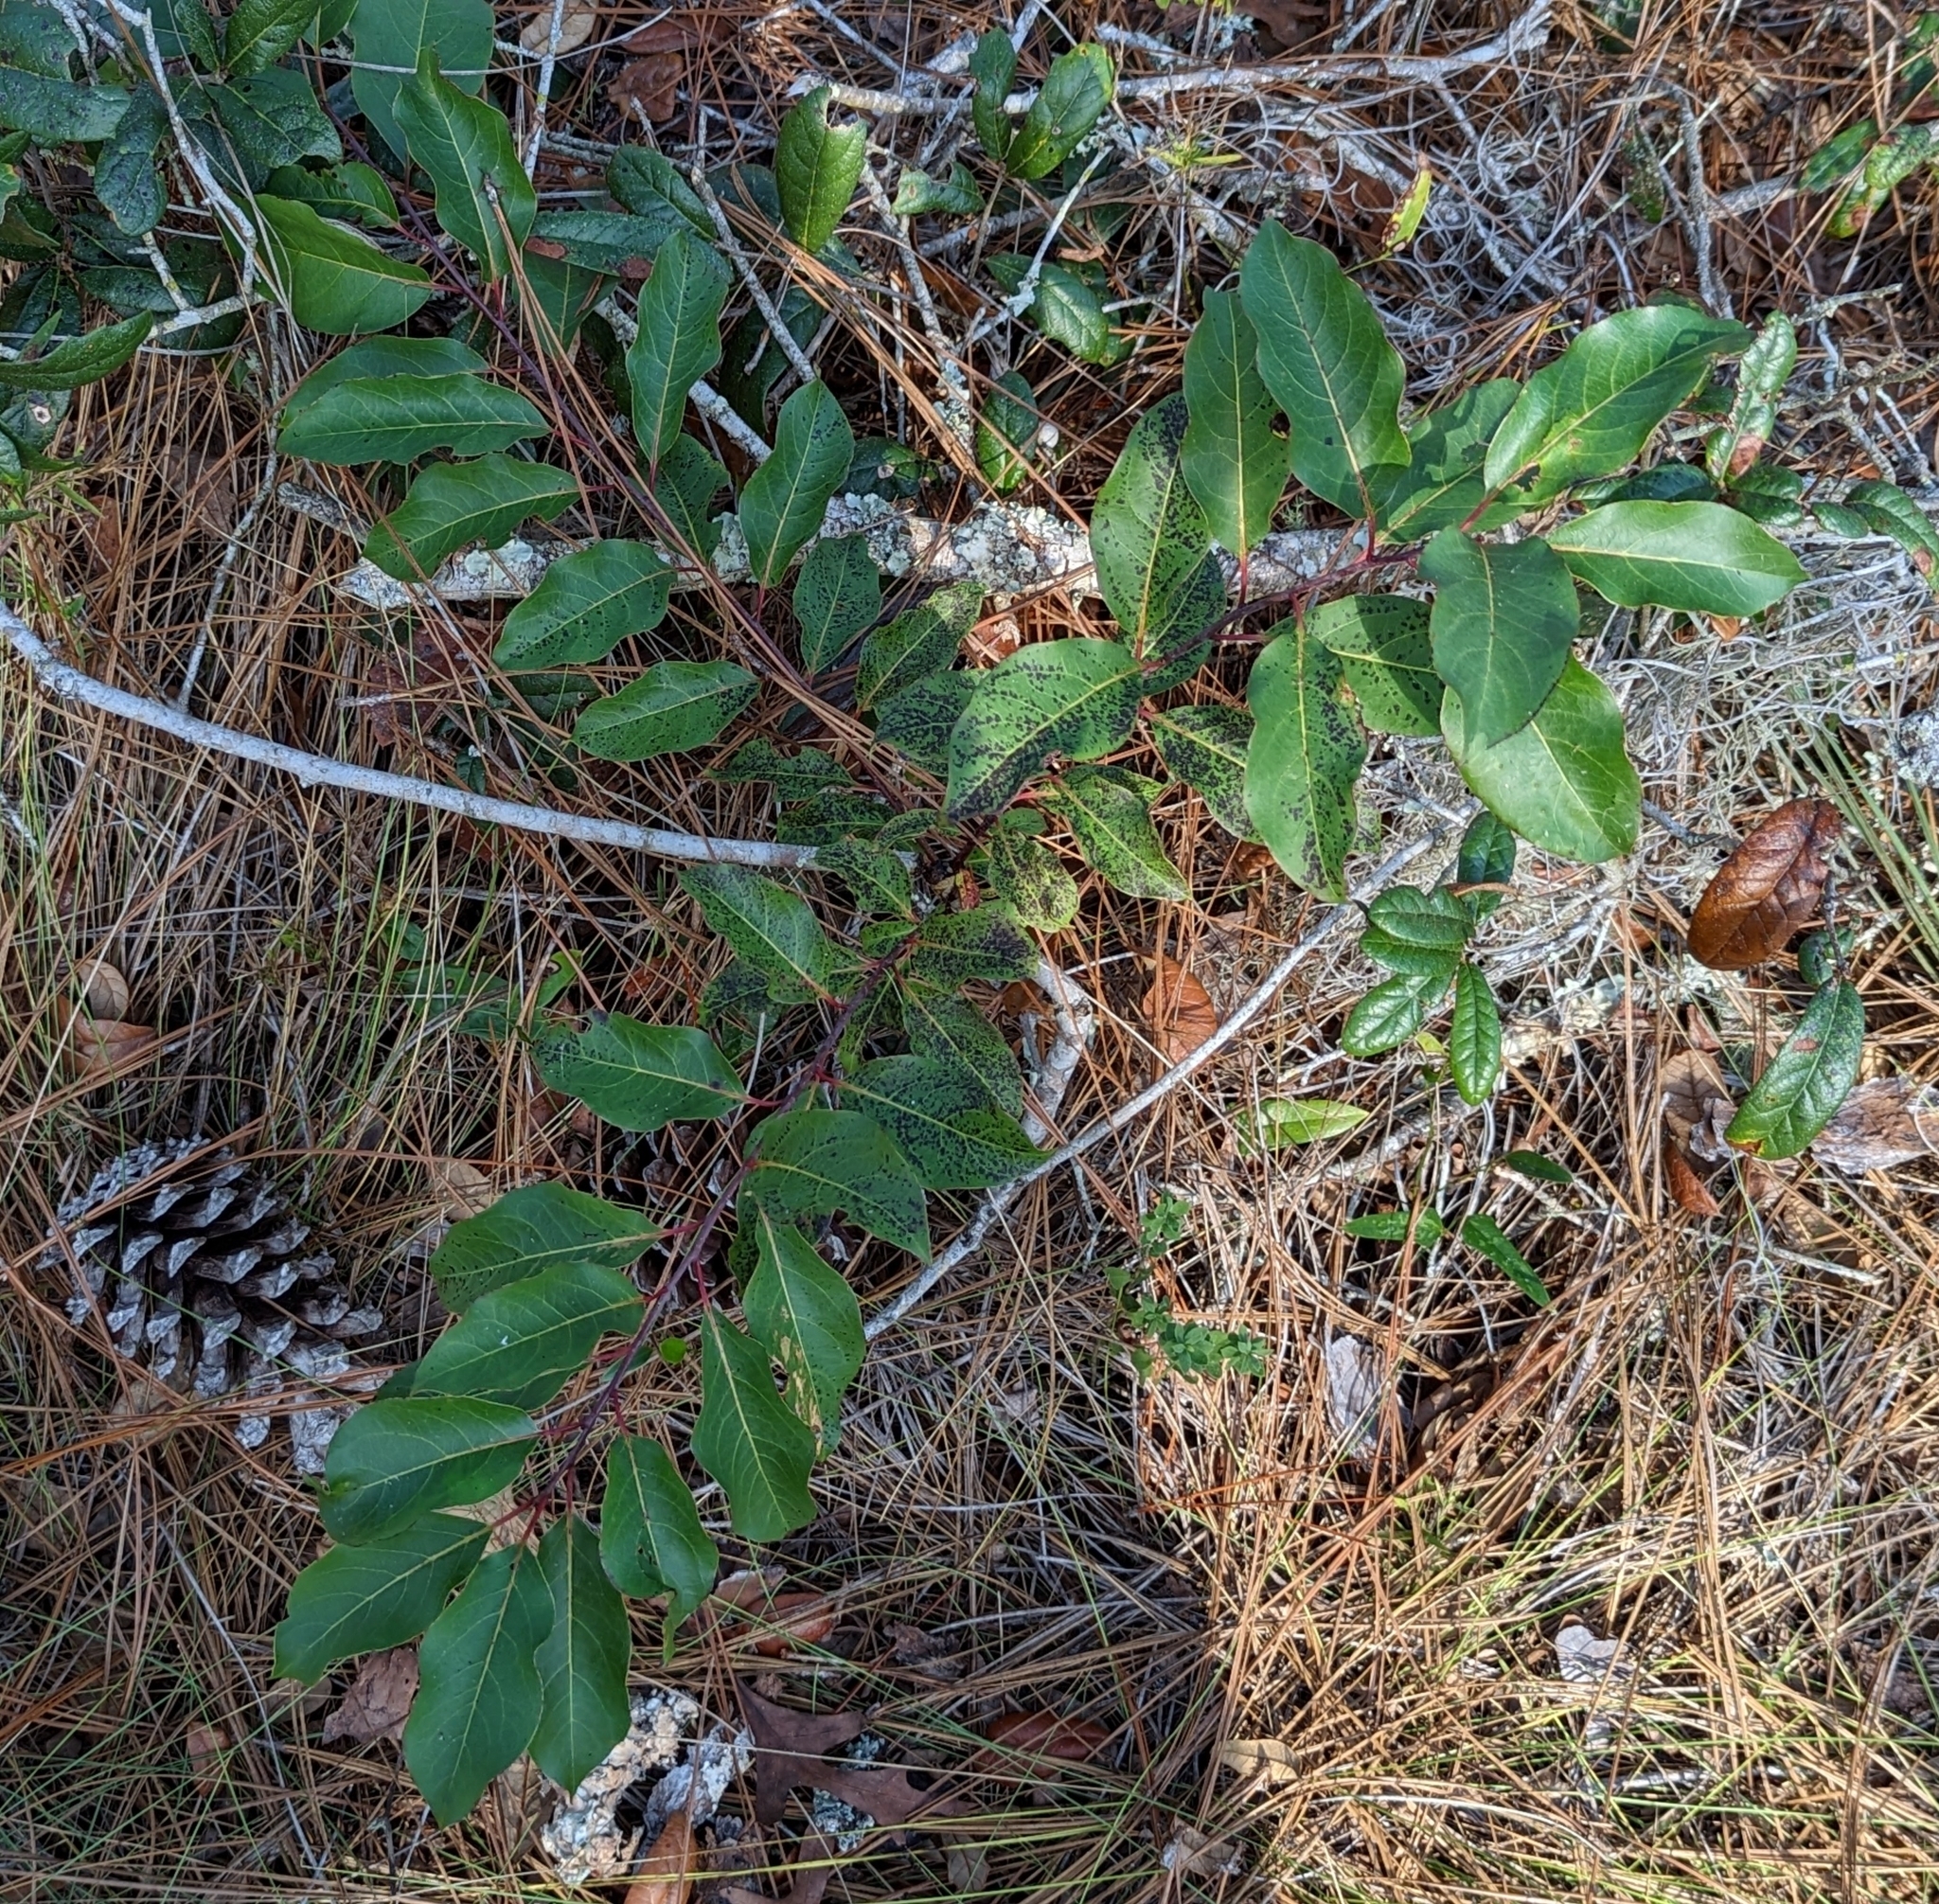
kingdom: Plantae
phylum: Tracheophyta
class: Magnoliopsida
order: Ericales
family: Ebenaceae
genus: Diospyros
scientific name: Diospyros virginiana
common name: Persimmon
